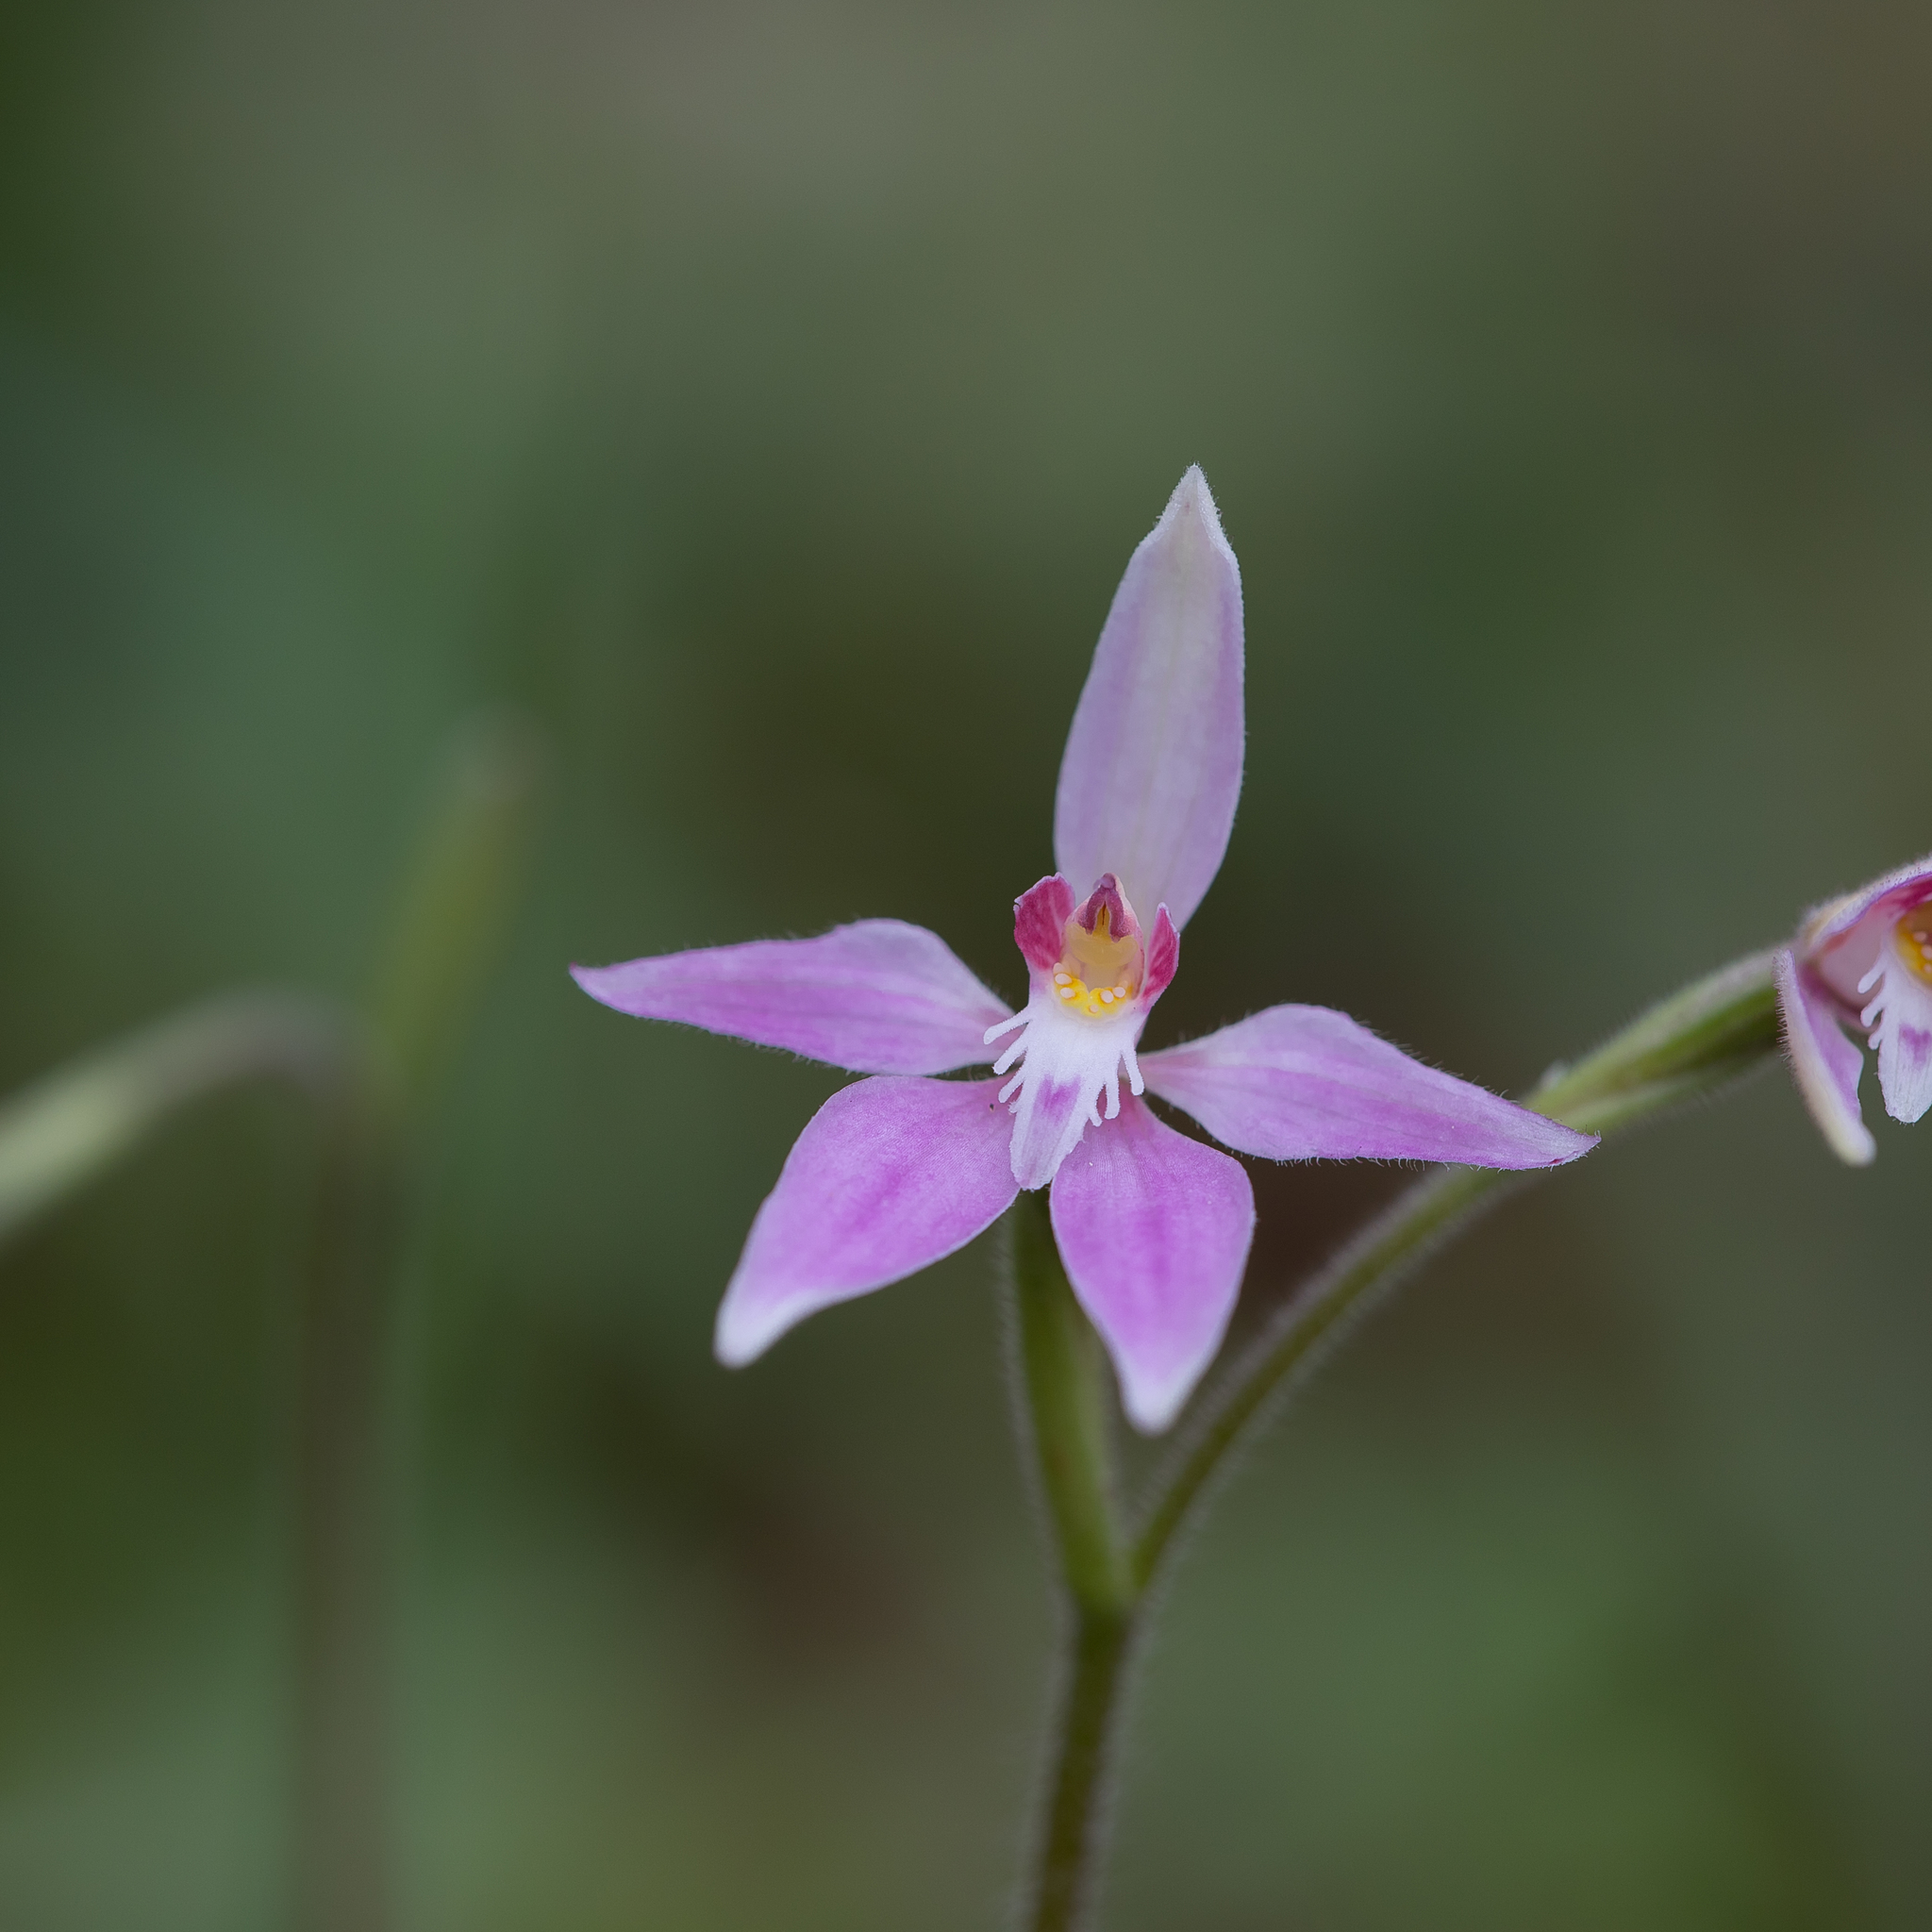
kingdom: Plantae
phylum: Tracheophyta
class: Liliopsida
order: Asparagales
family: Orchidaceae
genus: Caladenia
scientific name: Caladenia latifolia
